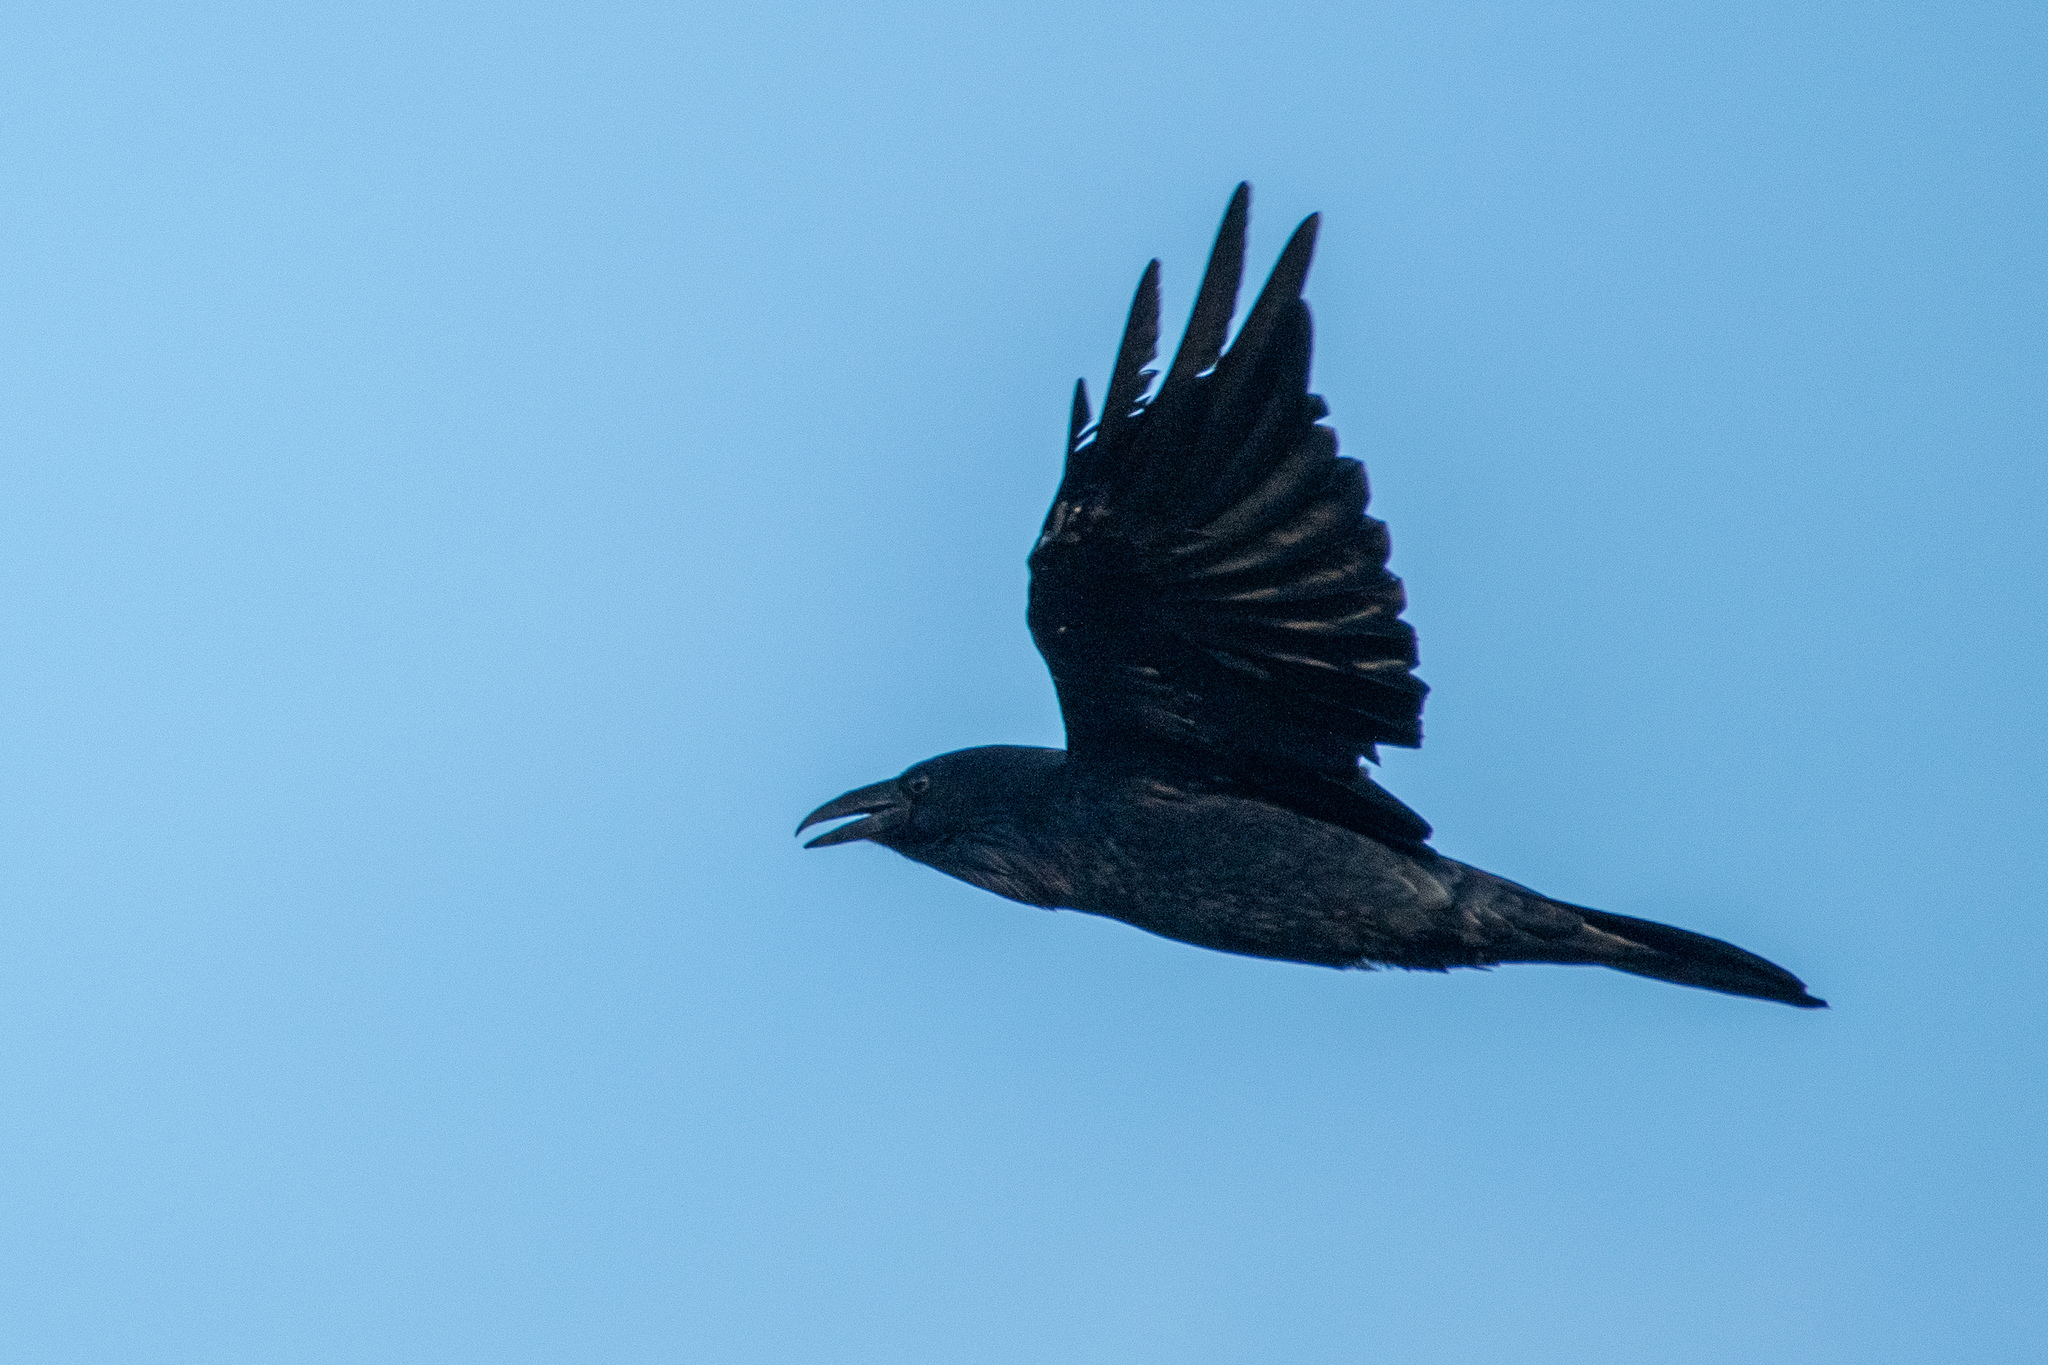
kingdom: Animalia
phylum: Chordata
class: Aves
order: Passeriformes
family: Corvidae
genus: Corvus
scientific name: Corvus corax
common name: Common raven
